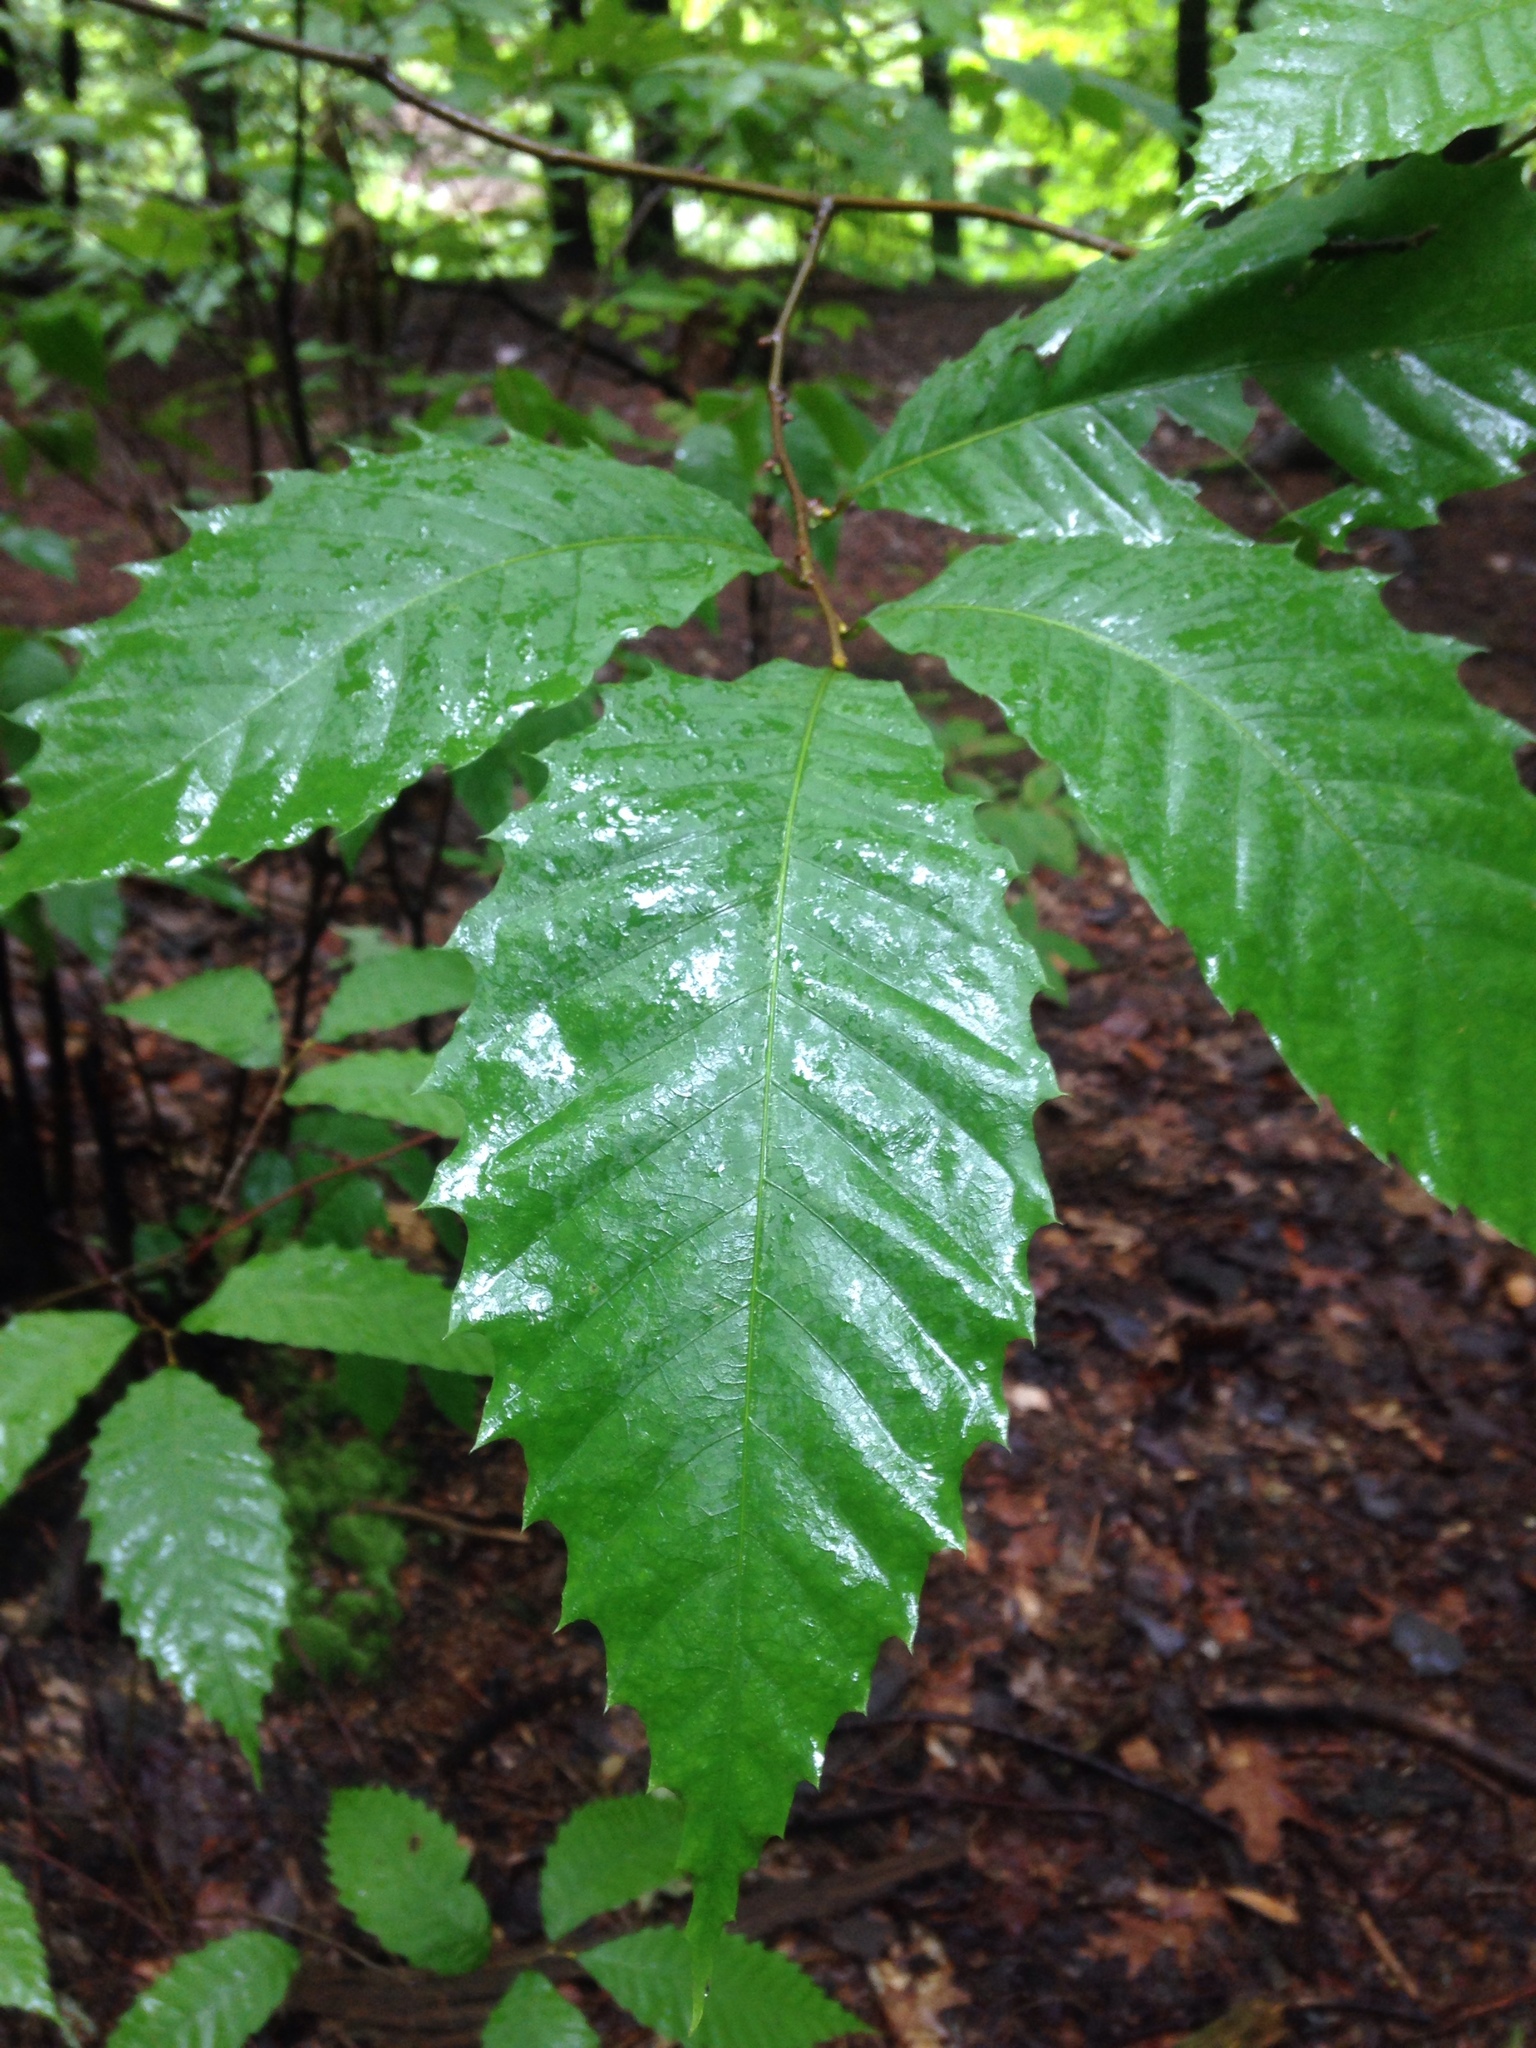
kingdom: Plantae
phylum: Tracheophyta
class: Magnoliopsida
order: Fagales
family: Fagaceae
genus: Castanea
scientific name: Castanea dentata
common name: American chestnut
